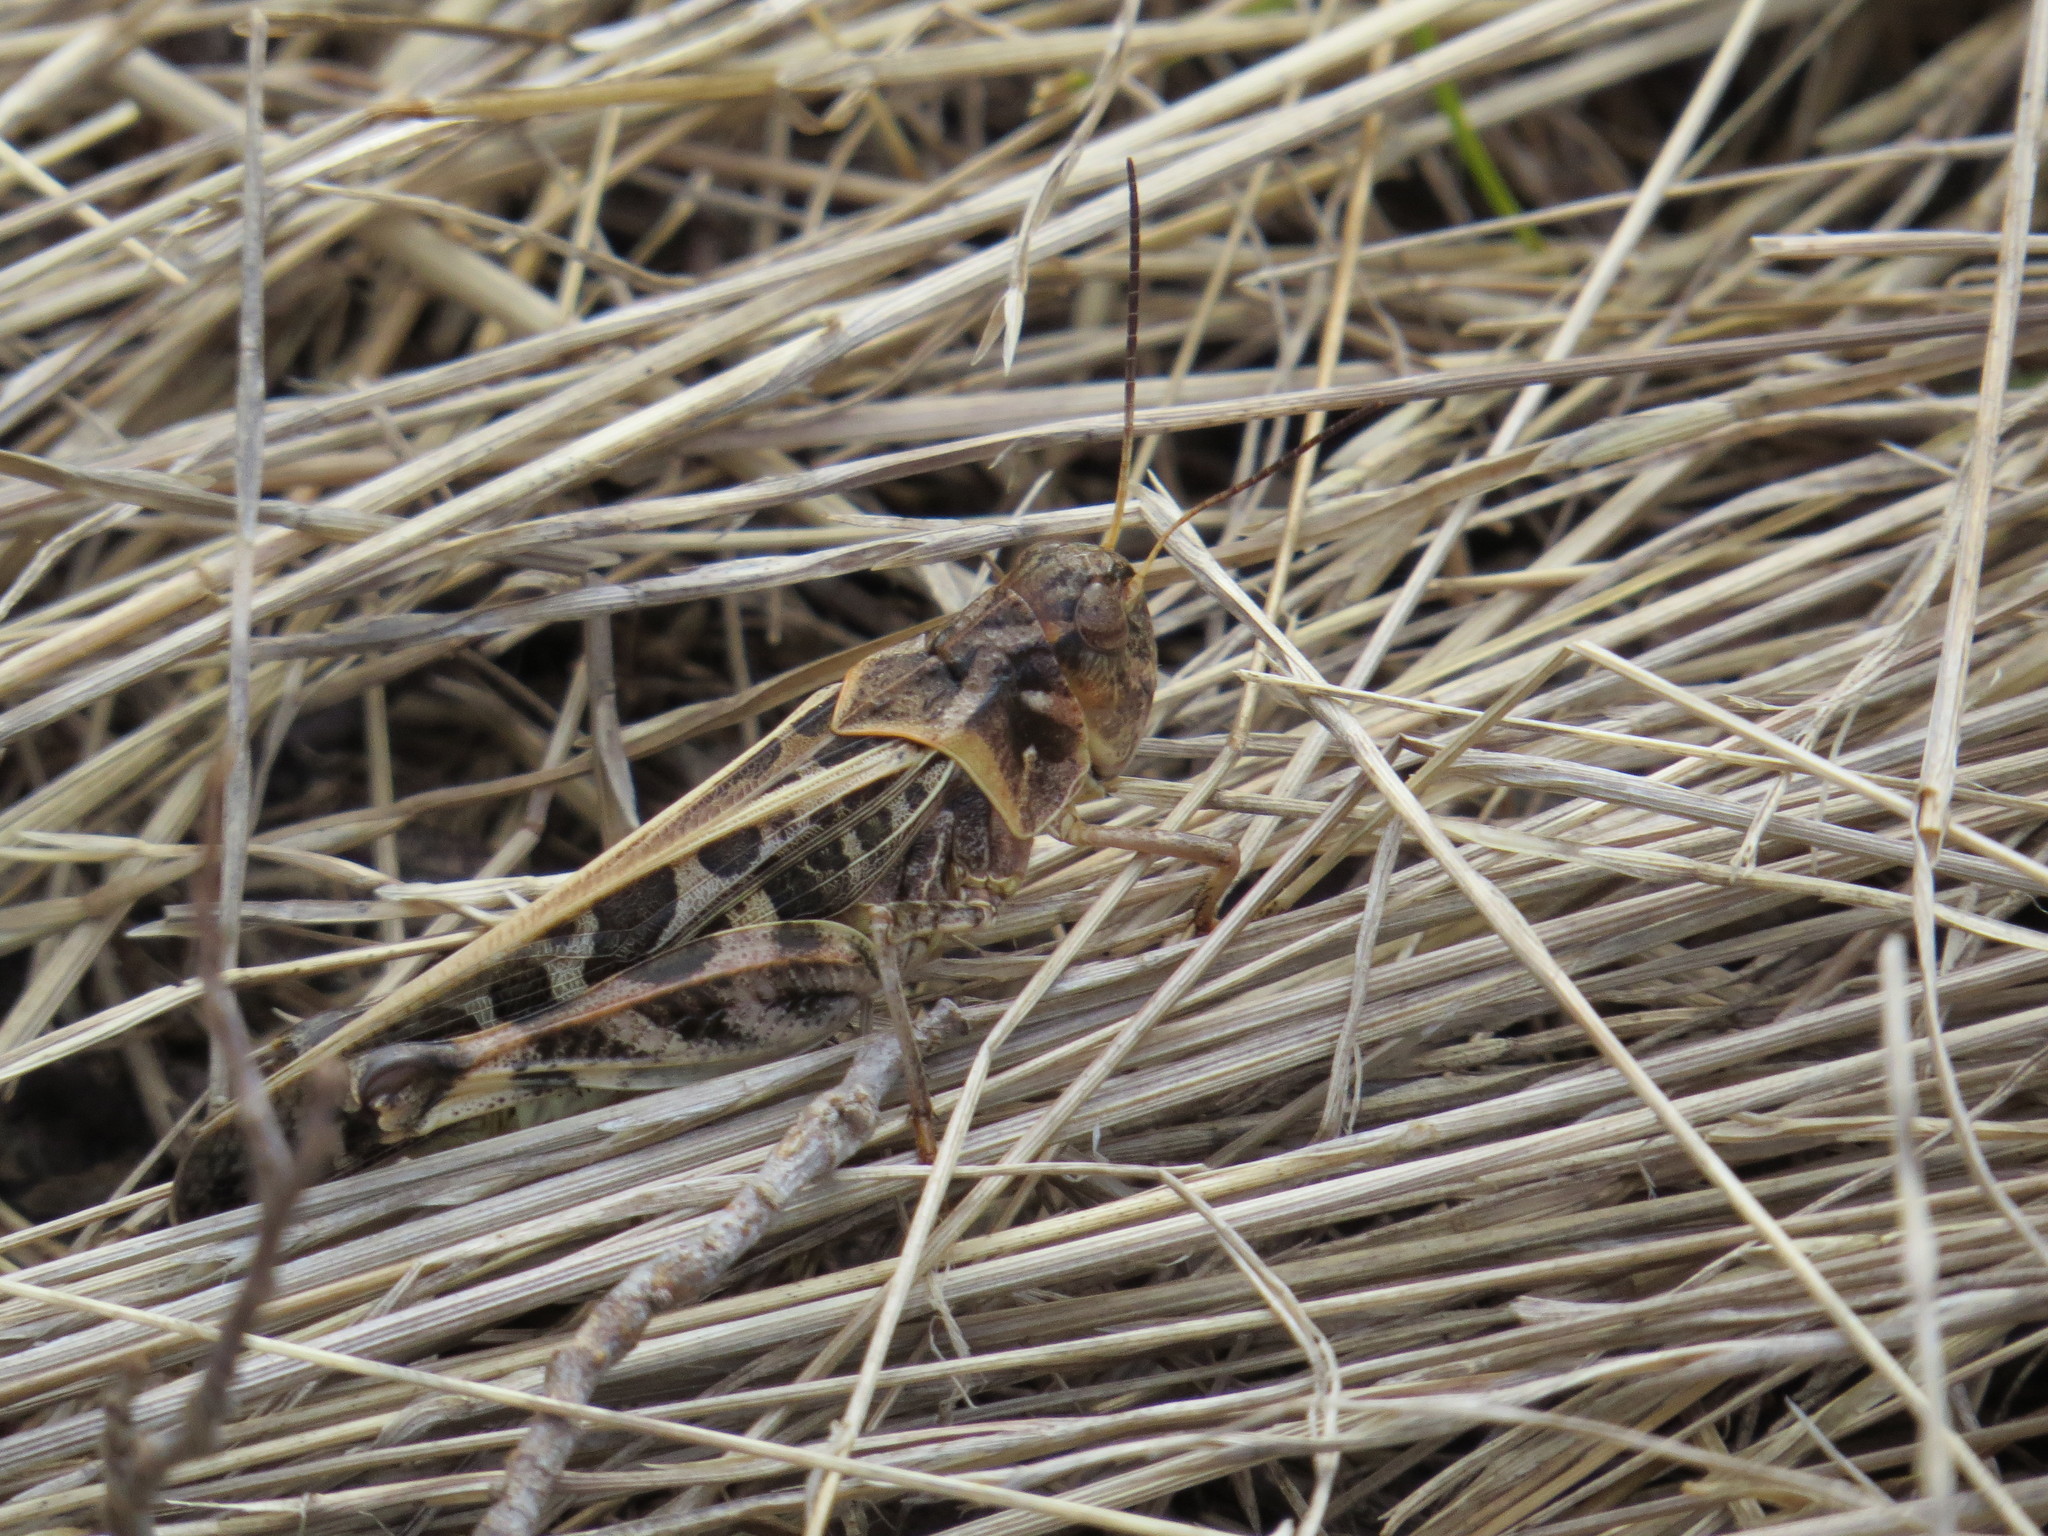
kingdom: Animalia
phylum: Arthropoda
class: Insecta
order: Orthoptera
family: Acrididae
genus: Hippiscus
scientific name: Hippiscus ocelote
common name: Wrinkled grasshopper
